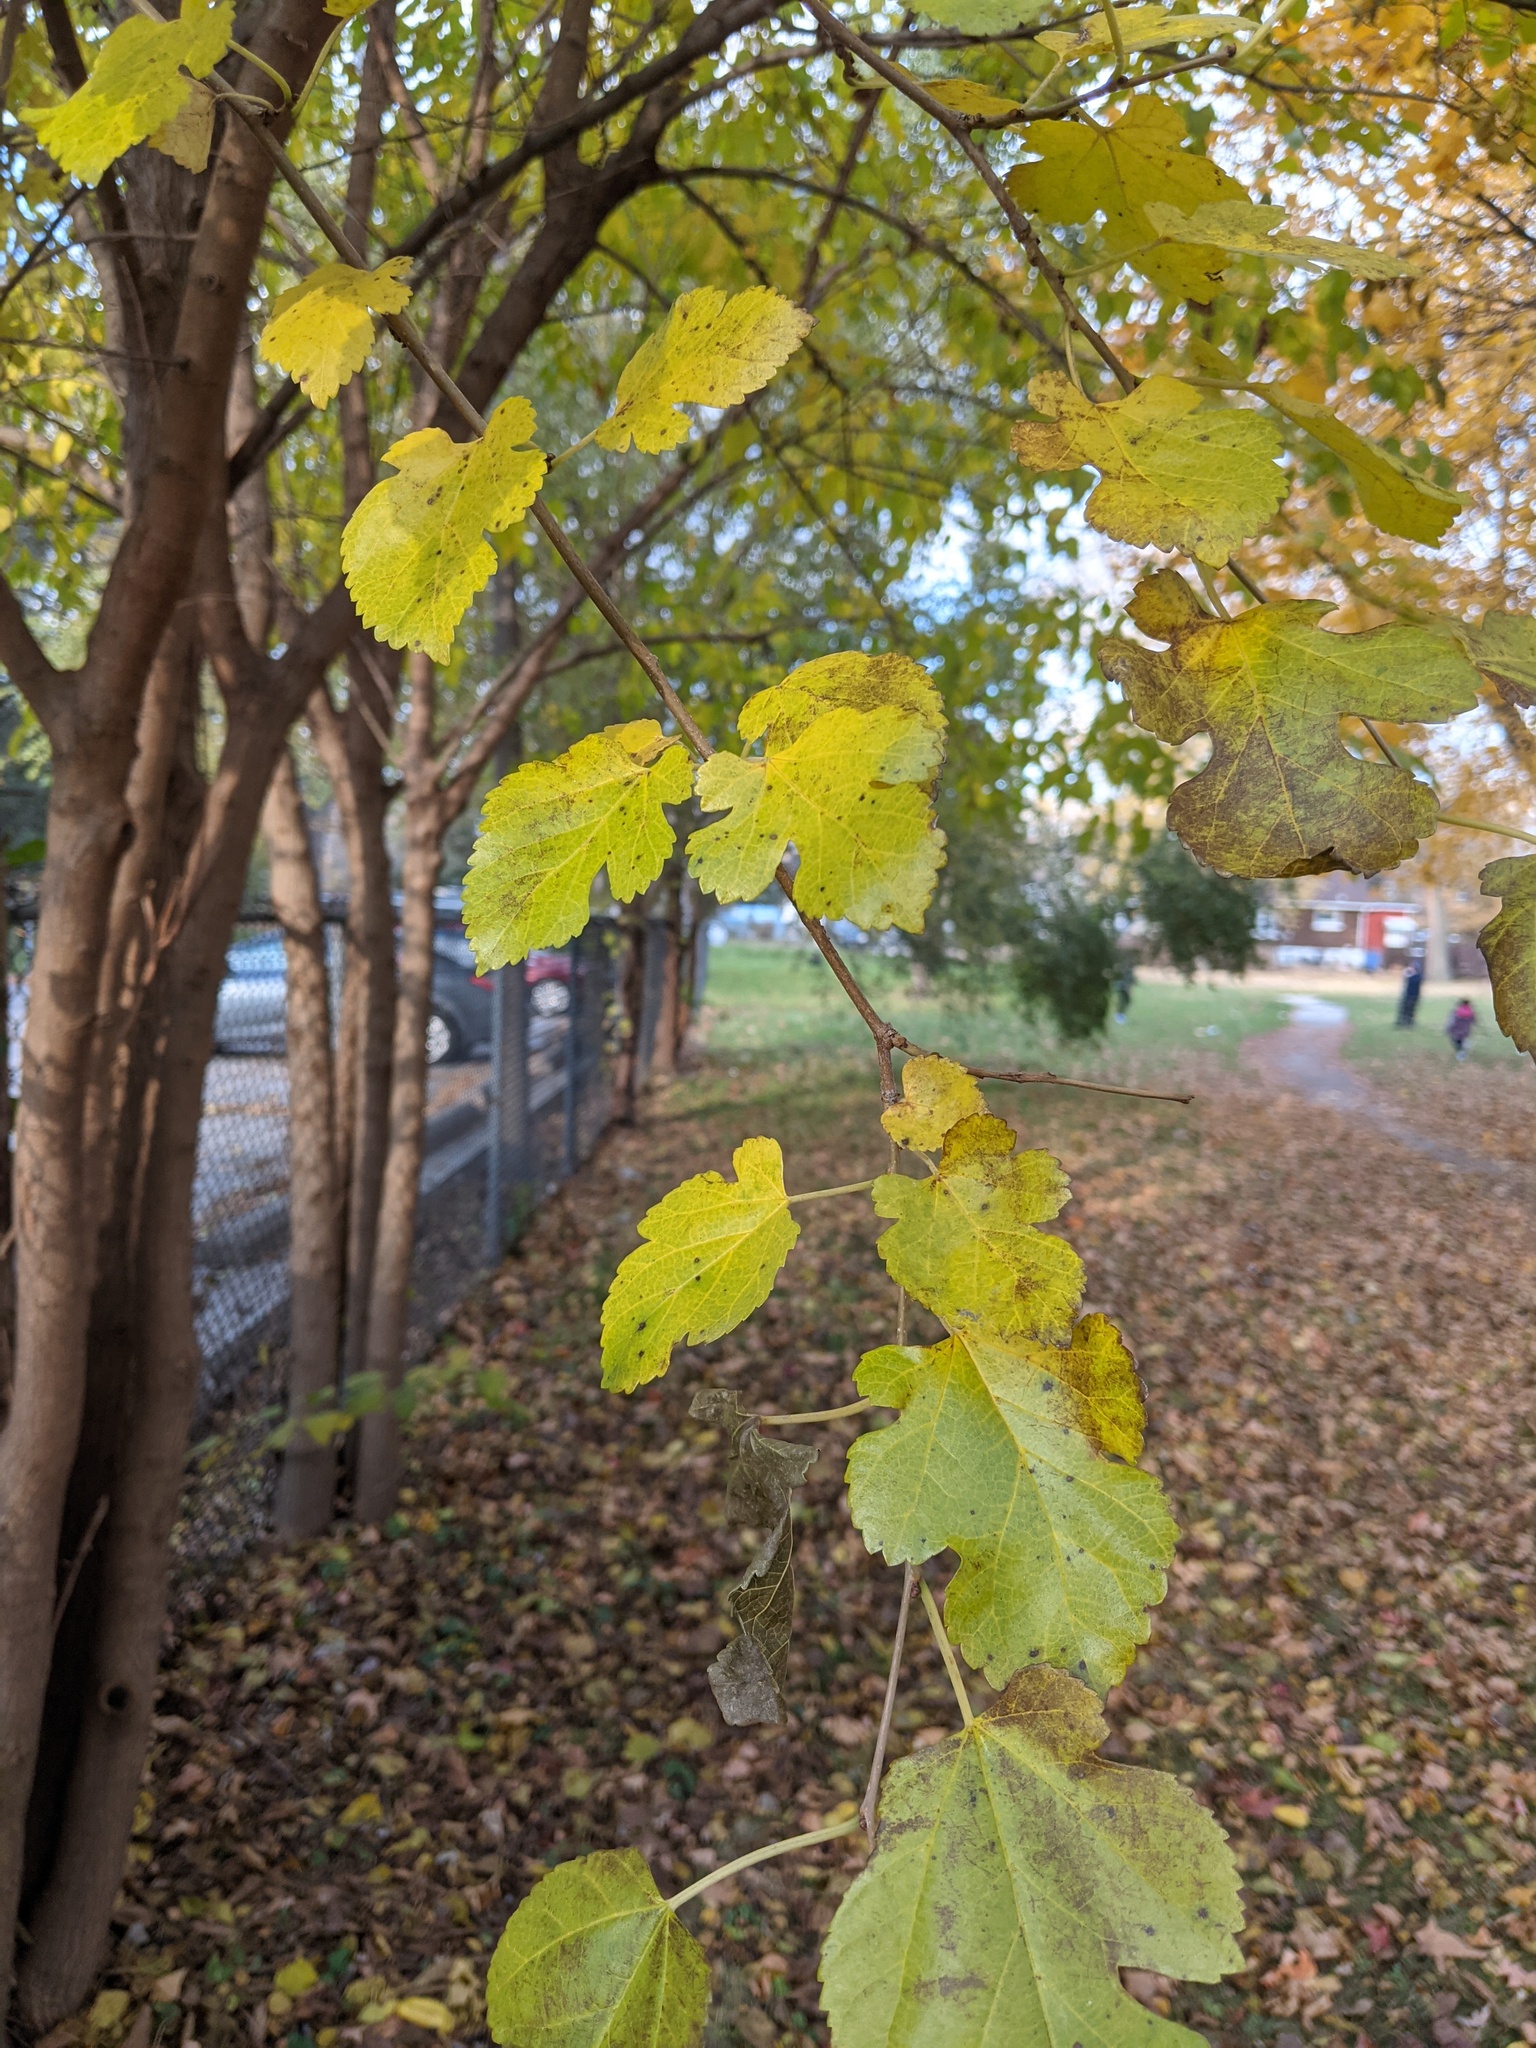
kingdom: Plantae
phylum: Tracheophyta
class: Magnoliopsida
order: Rosales
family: Moraceae
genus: Morus
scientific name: Morus alba
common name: White mulberry
